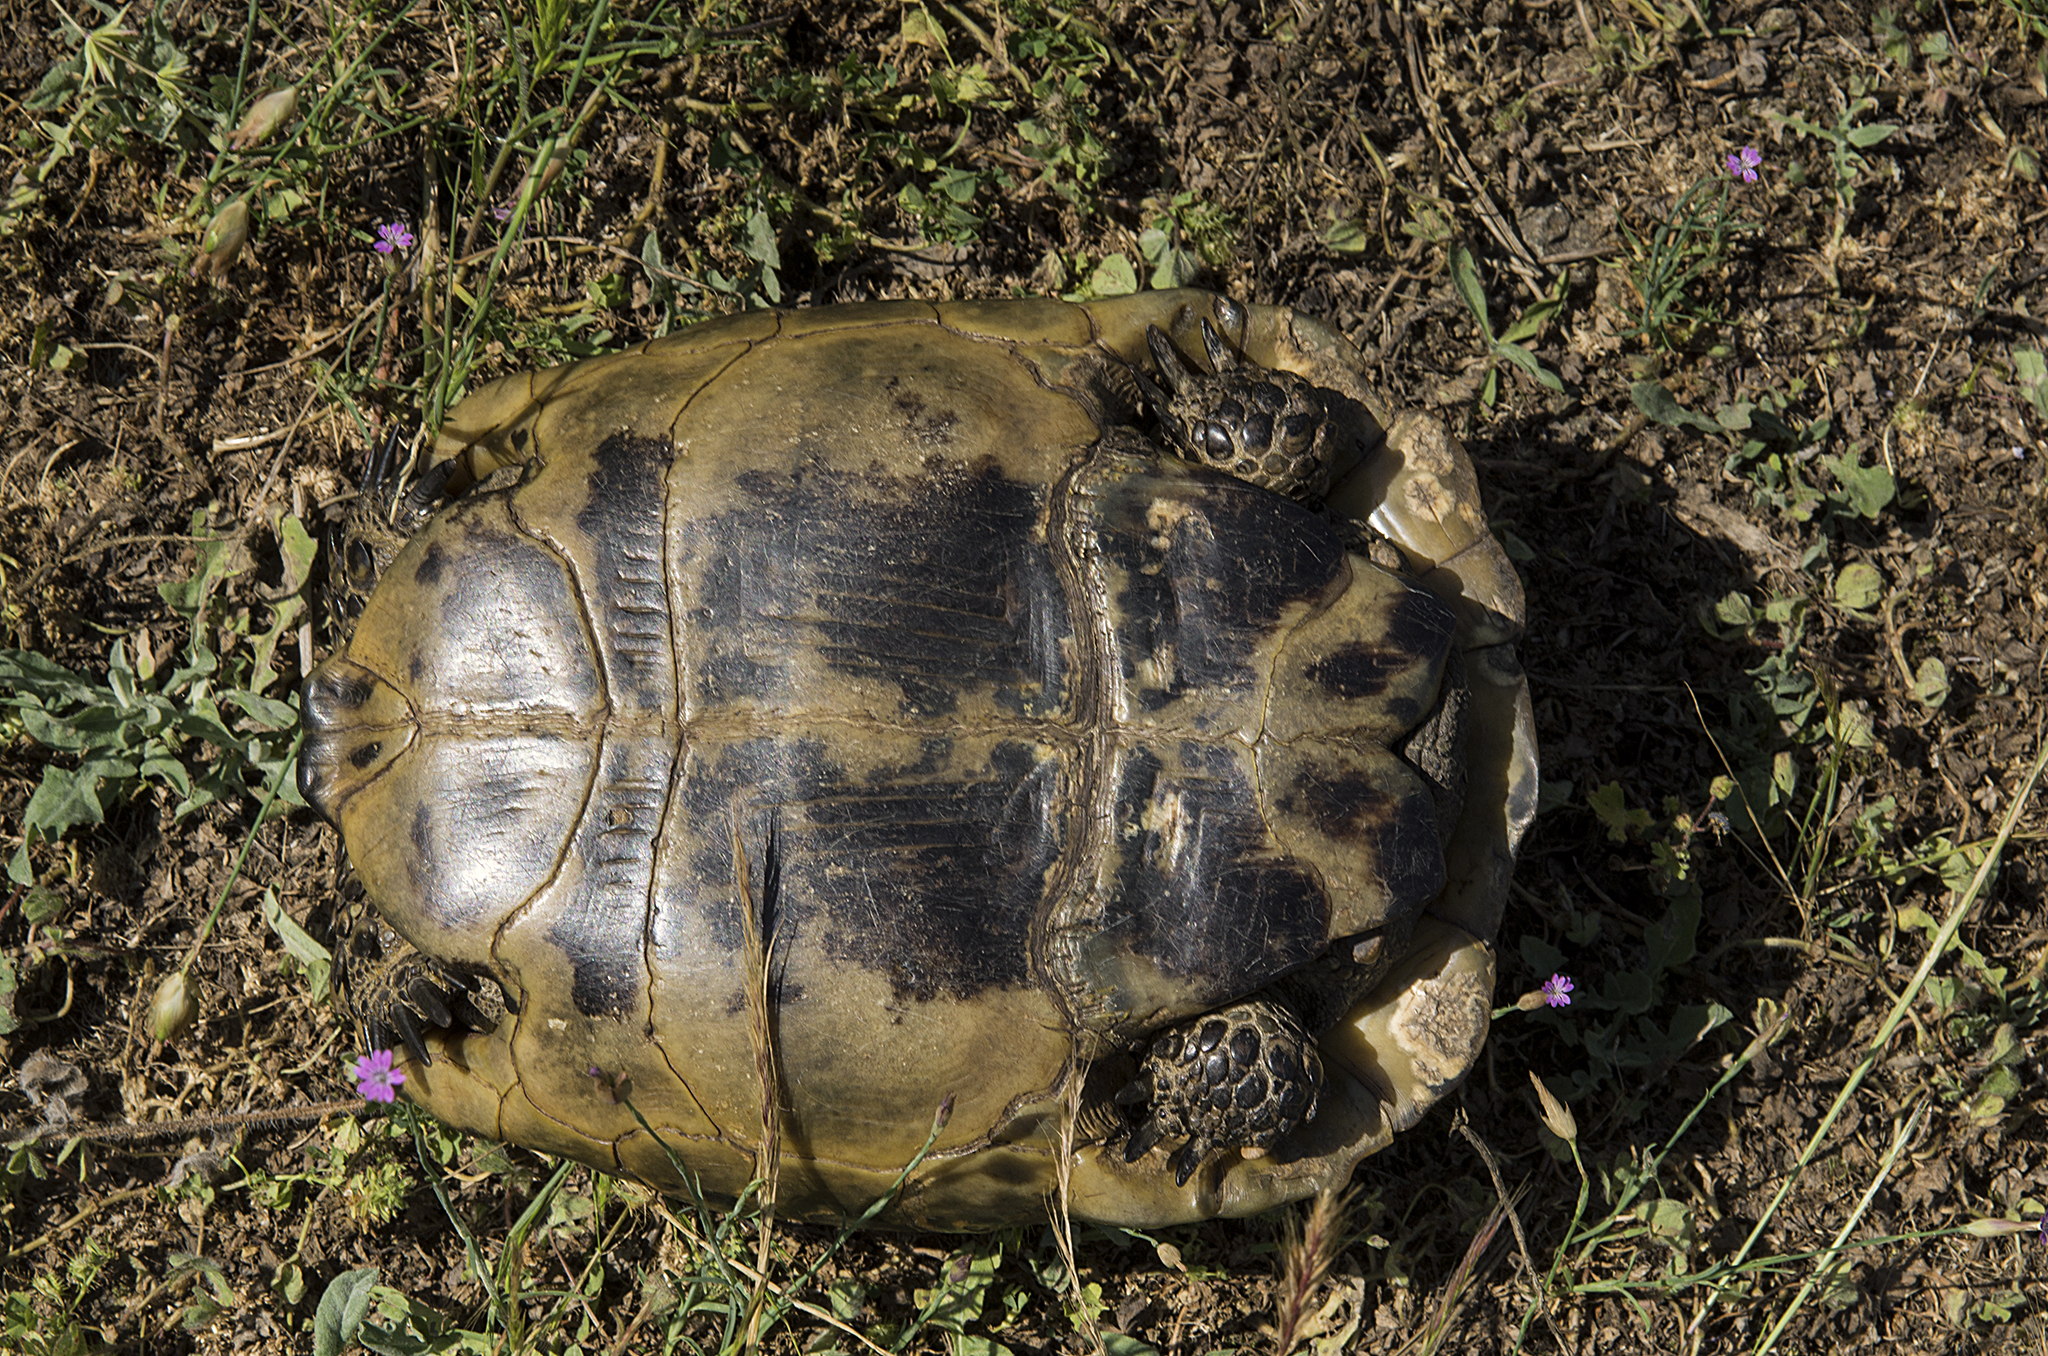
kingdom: Animalia
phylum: Chordata
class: Testudines
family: Testudinidae
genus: Testudo
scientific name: Testudo graeca
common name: Common tortoise
